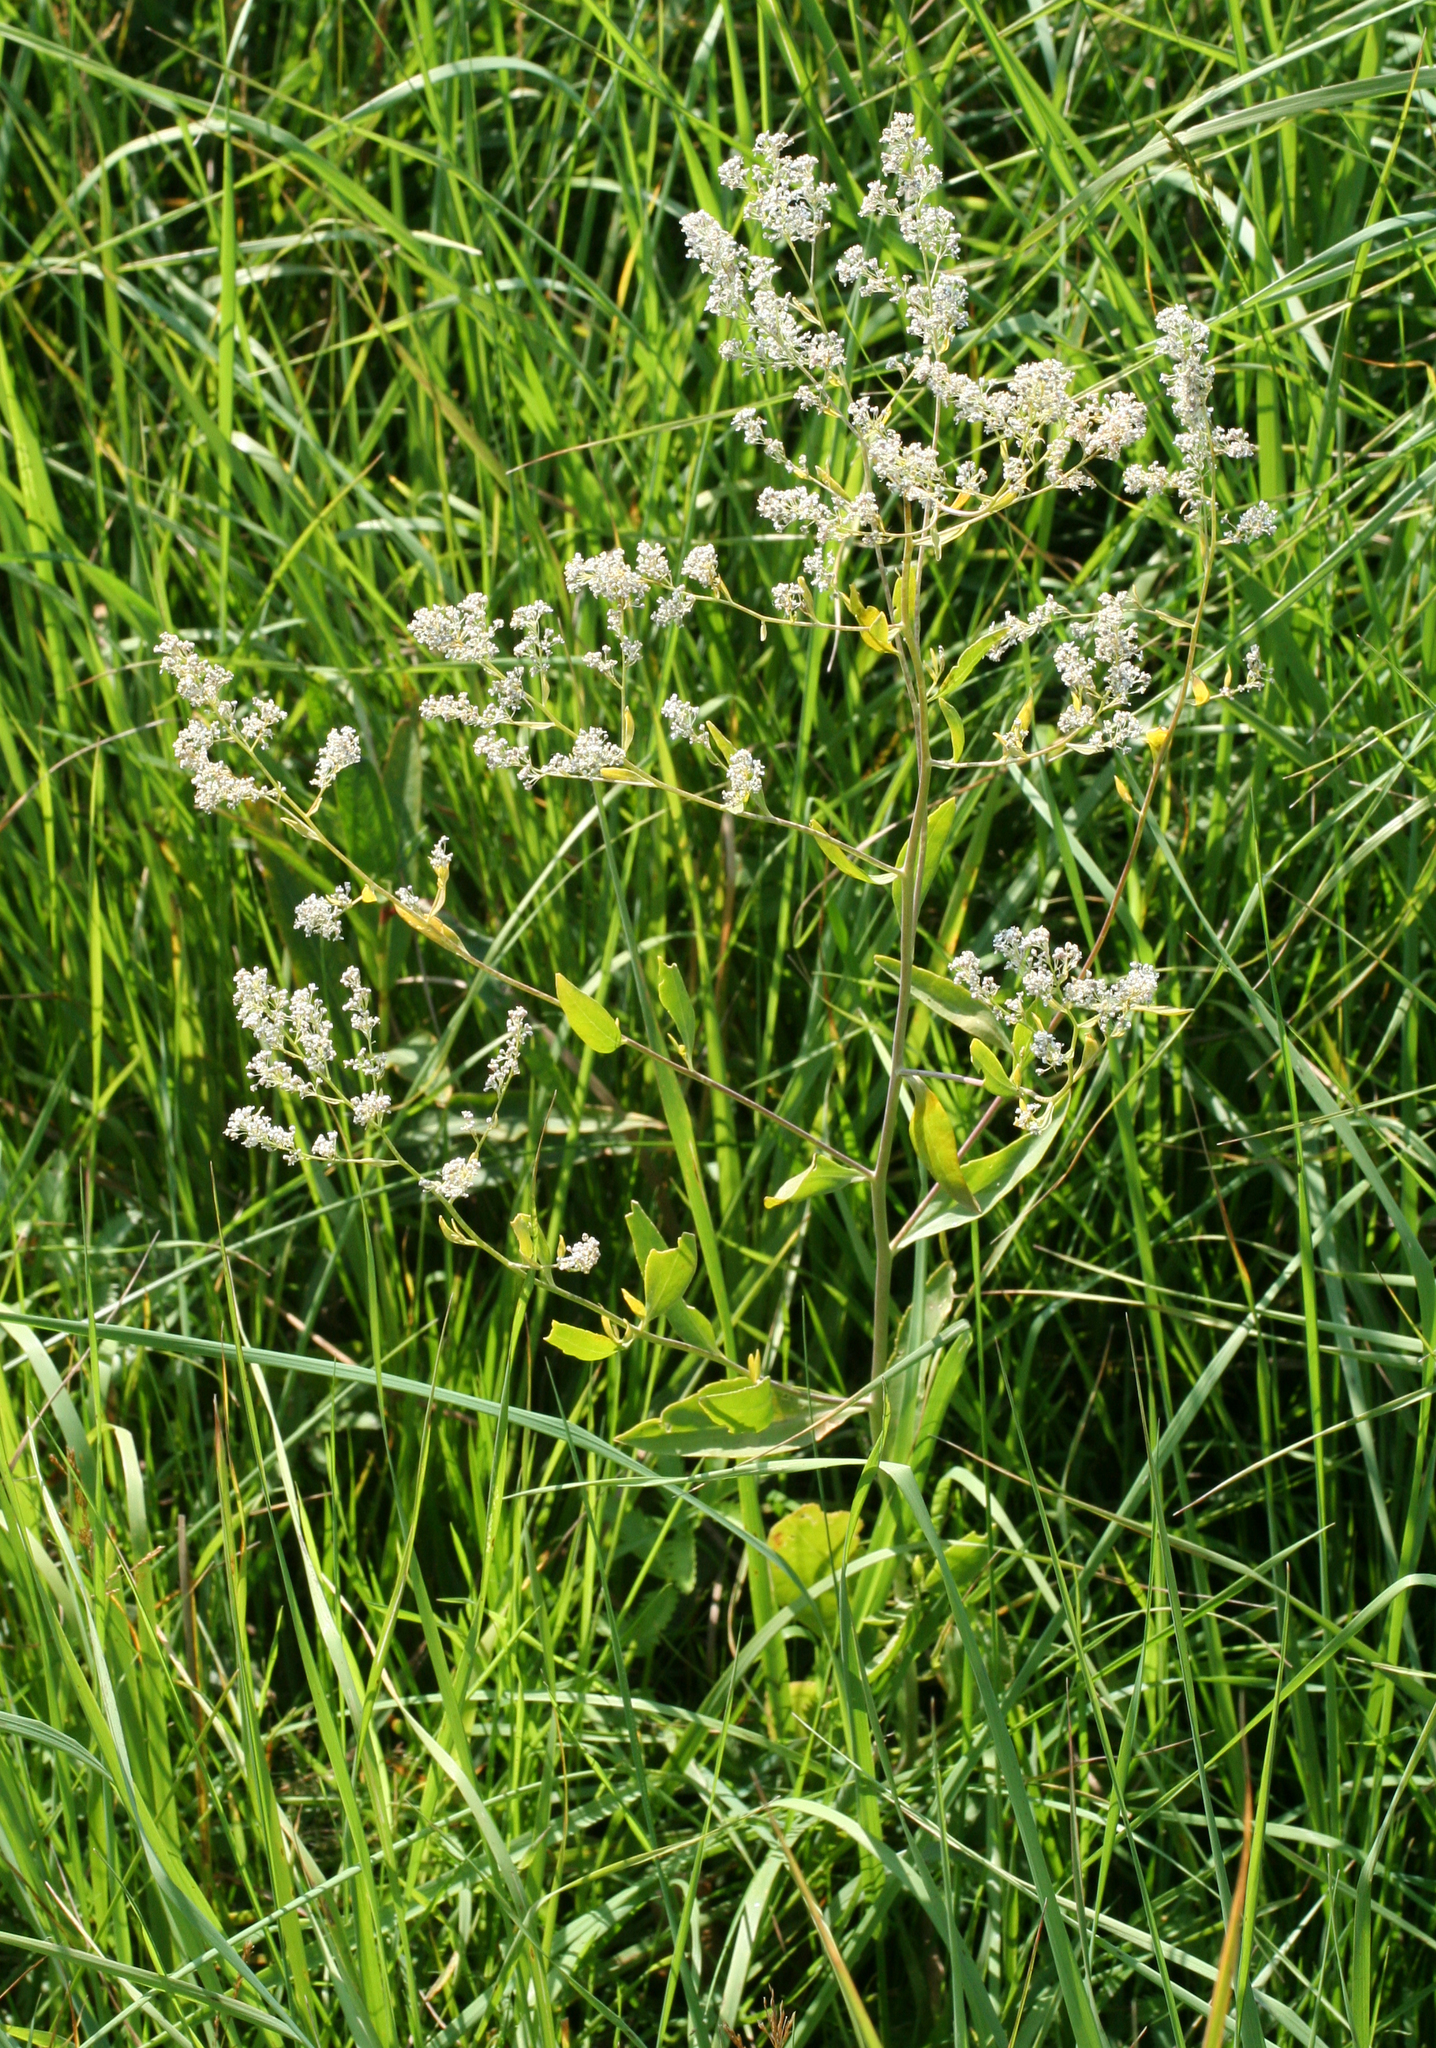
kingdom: Plantae
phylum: Tracheophyta
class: Magnoliopsida
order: Brassicales
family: Brassicaceae
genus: Lepidium
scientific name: Lepidium latifolium
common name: Dittander
